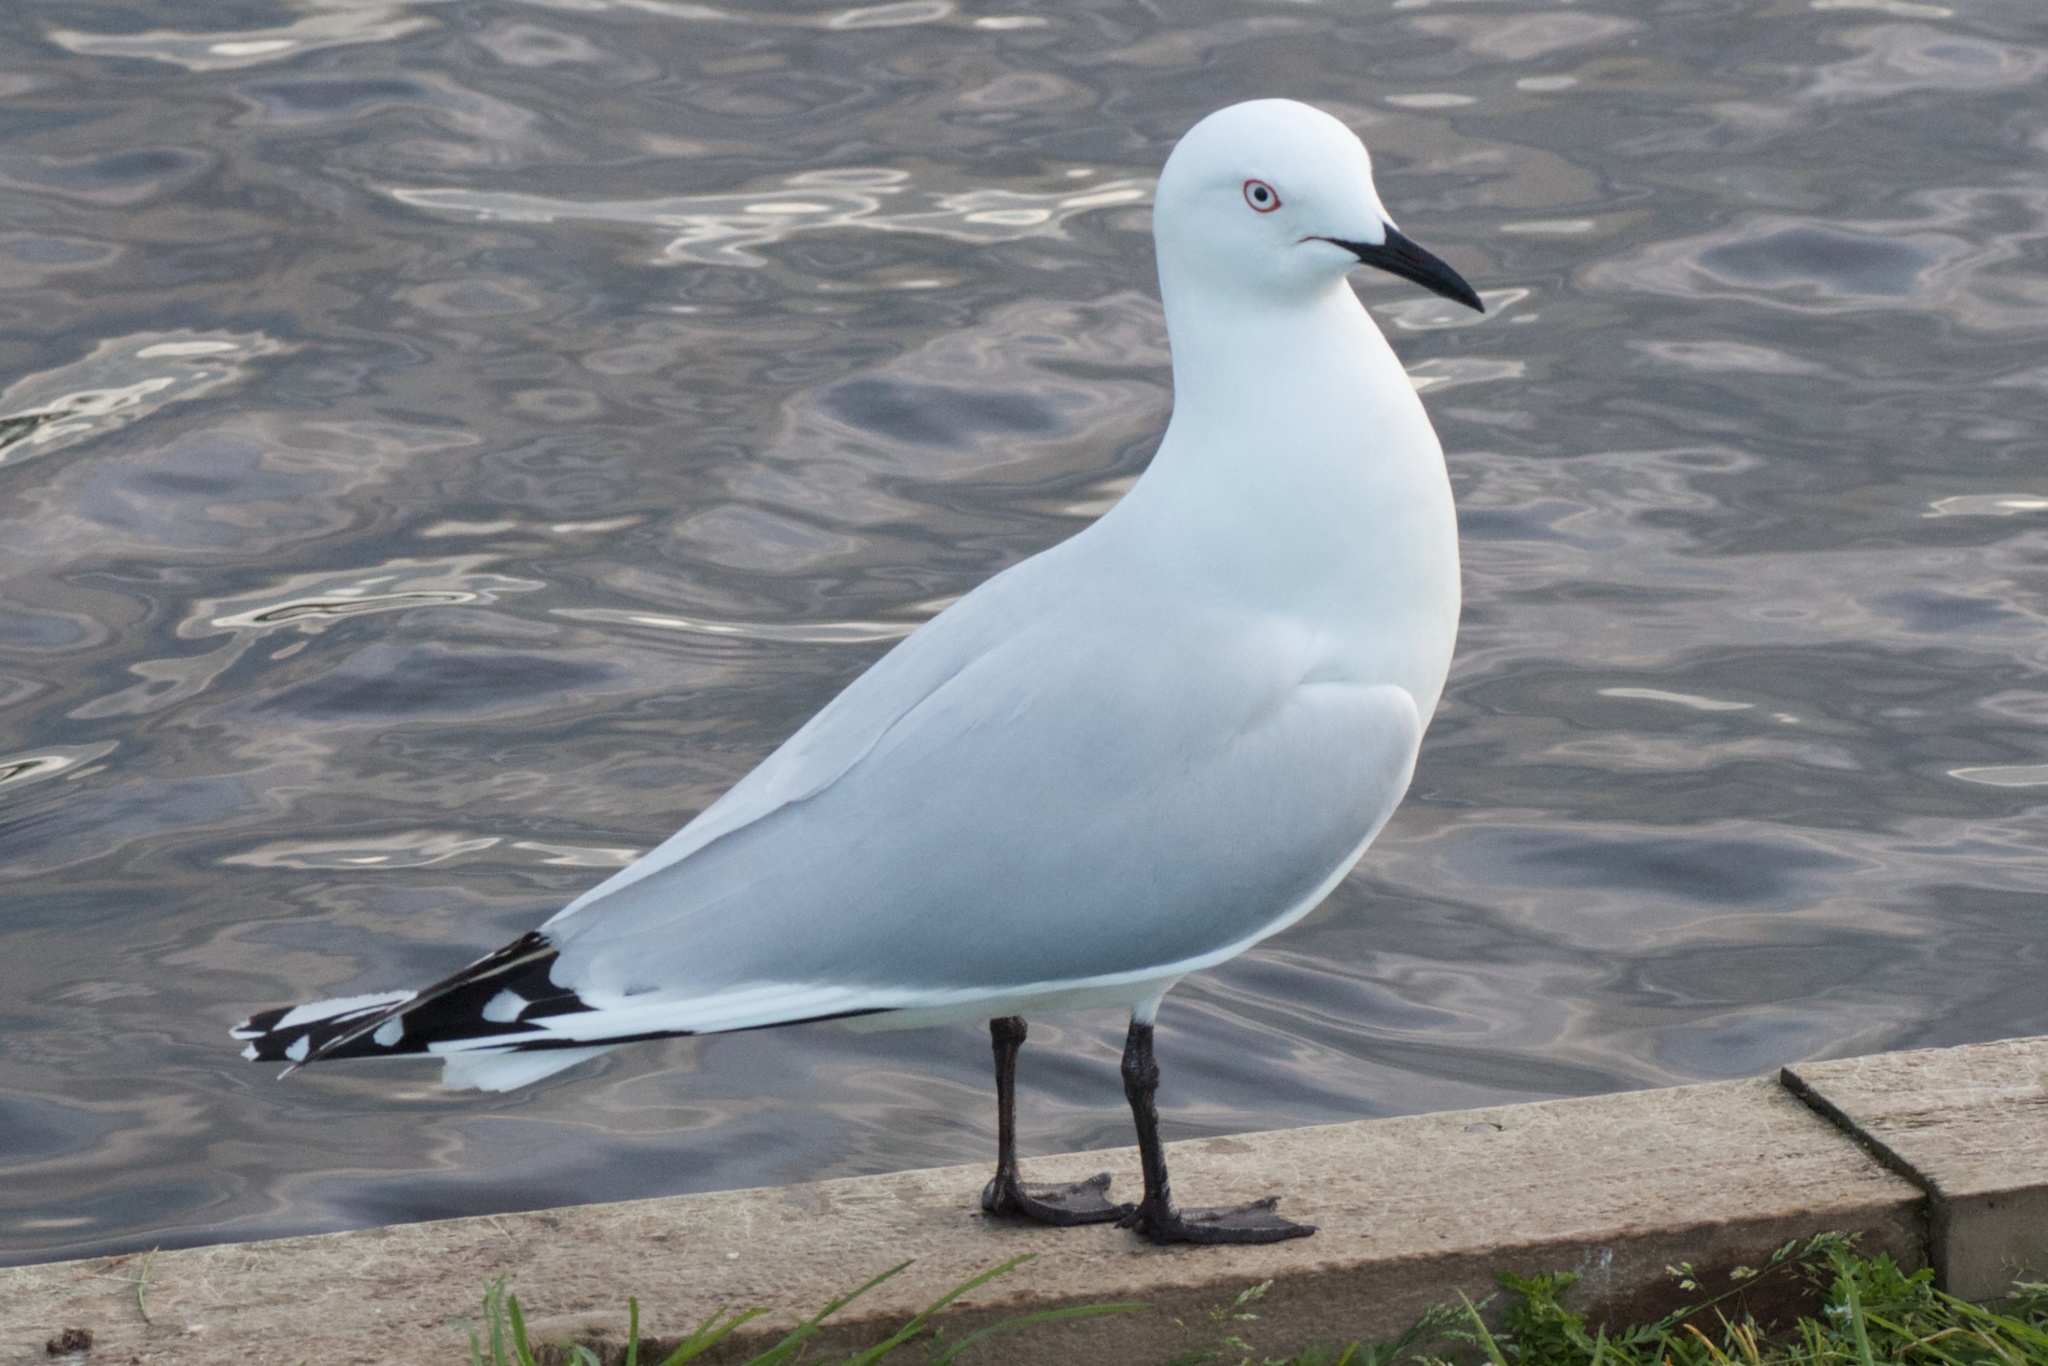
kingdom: Animalia
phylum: Chordata
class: Aves
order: Charadriiformes
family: Laridae
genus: Chroicocephalus
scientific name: Chroicocephalus bulleri
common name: Black-billed gull
